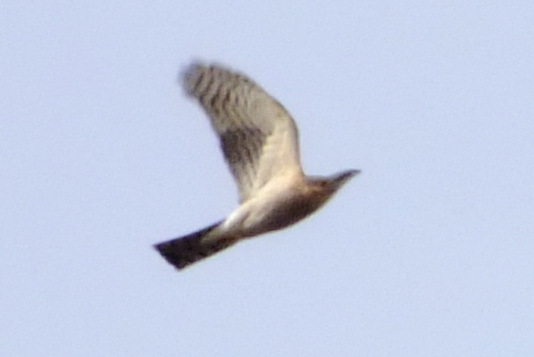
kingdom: Animalia
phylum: Chordata
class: Aves
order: Accipitriformes
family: Accipitridae
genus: Accipiter
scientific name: Accipiter nisus
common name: Eurasian sparrowhawk
